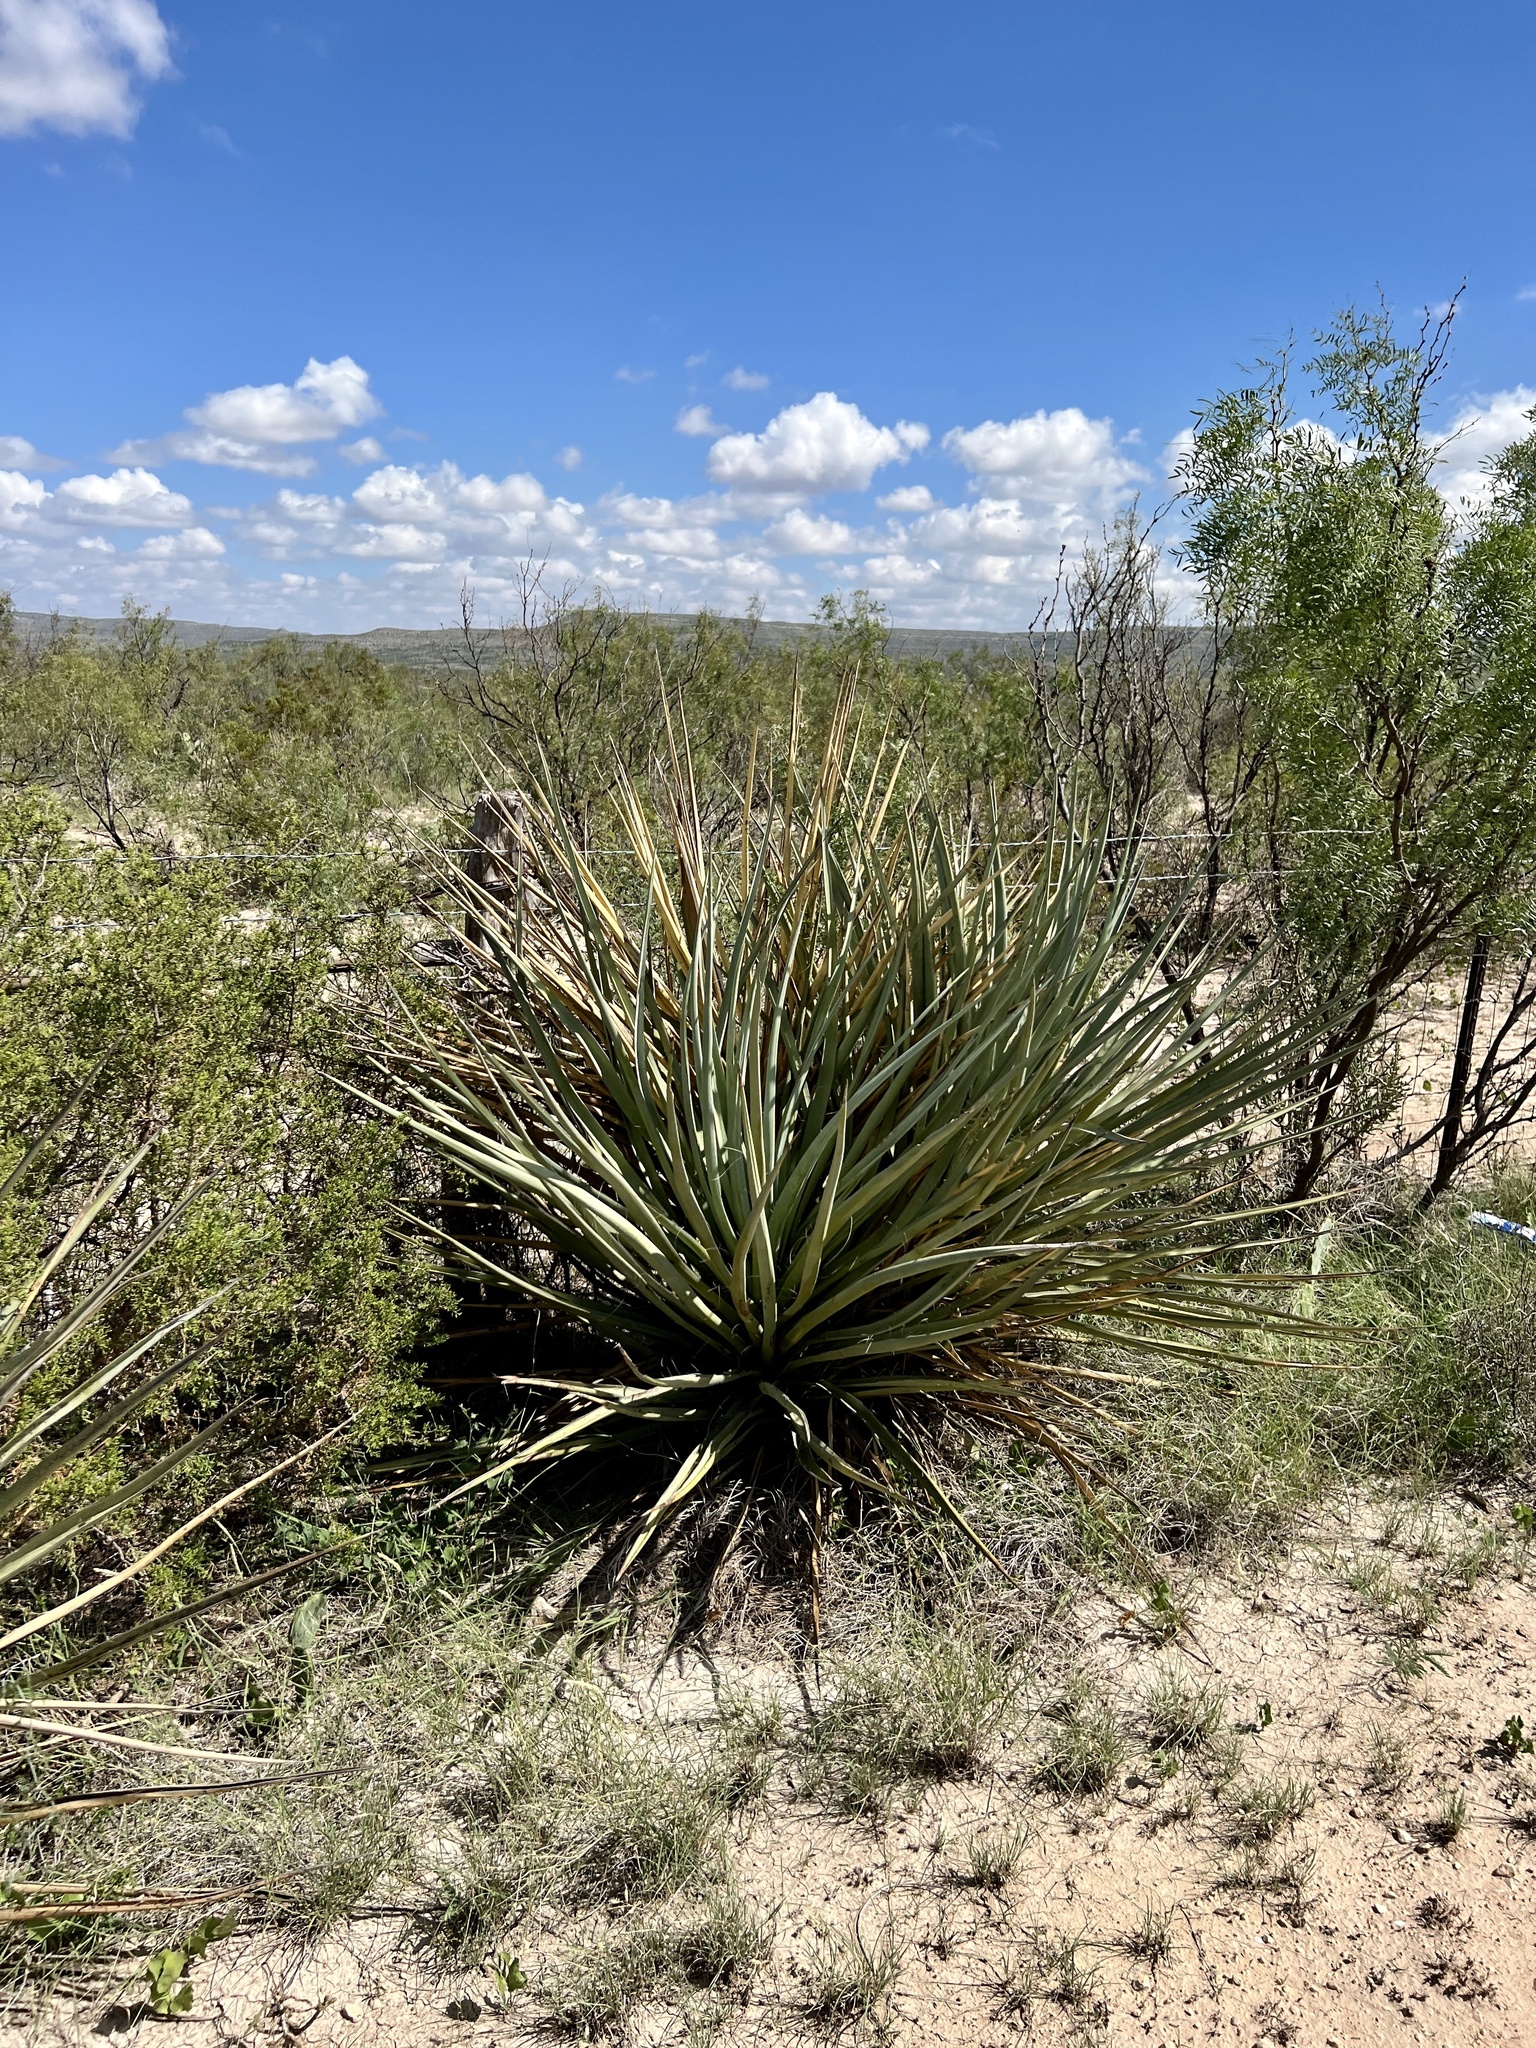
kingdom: Plantae
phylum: Tracheophyta
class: Liliopsida
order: Asparagales
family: Asparagaceae
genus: Yucca
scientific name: Yucca treculiana
